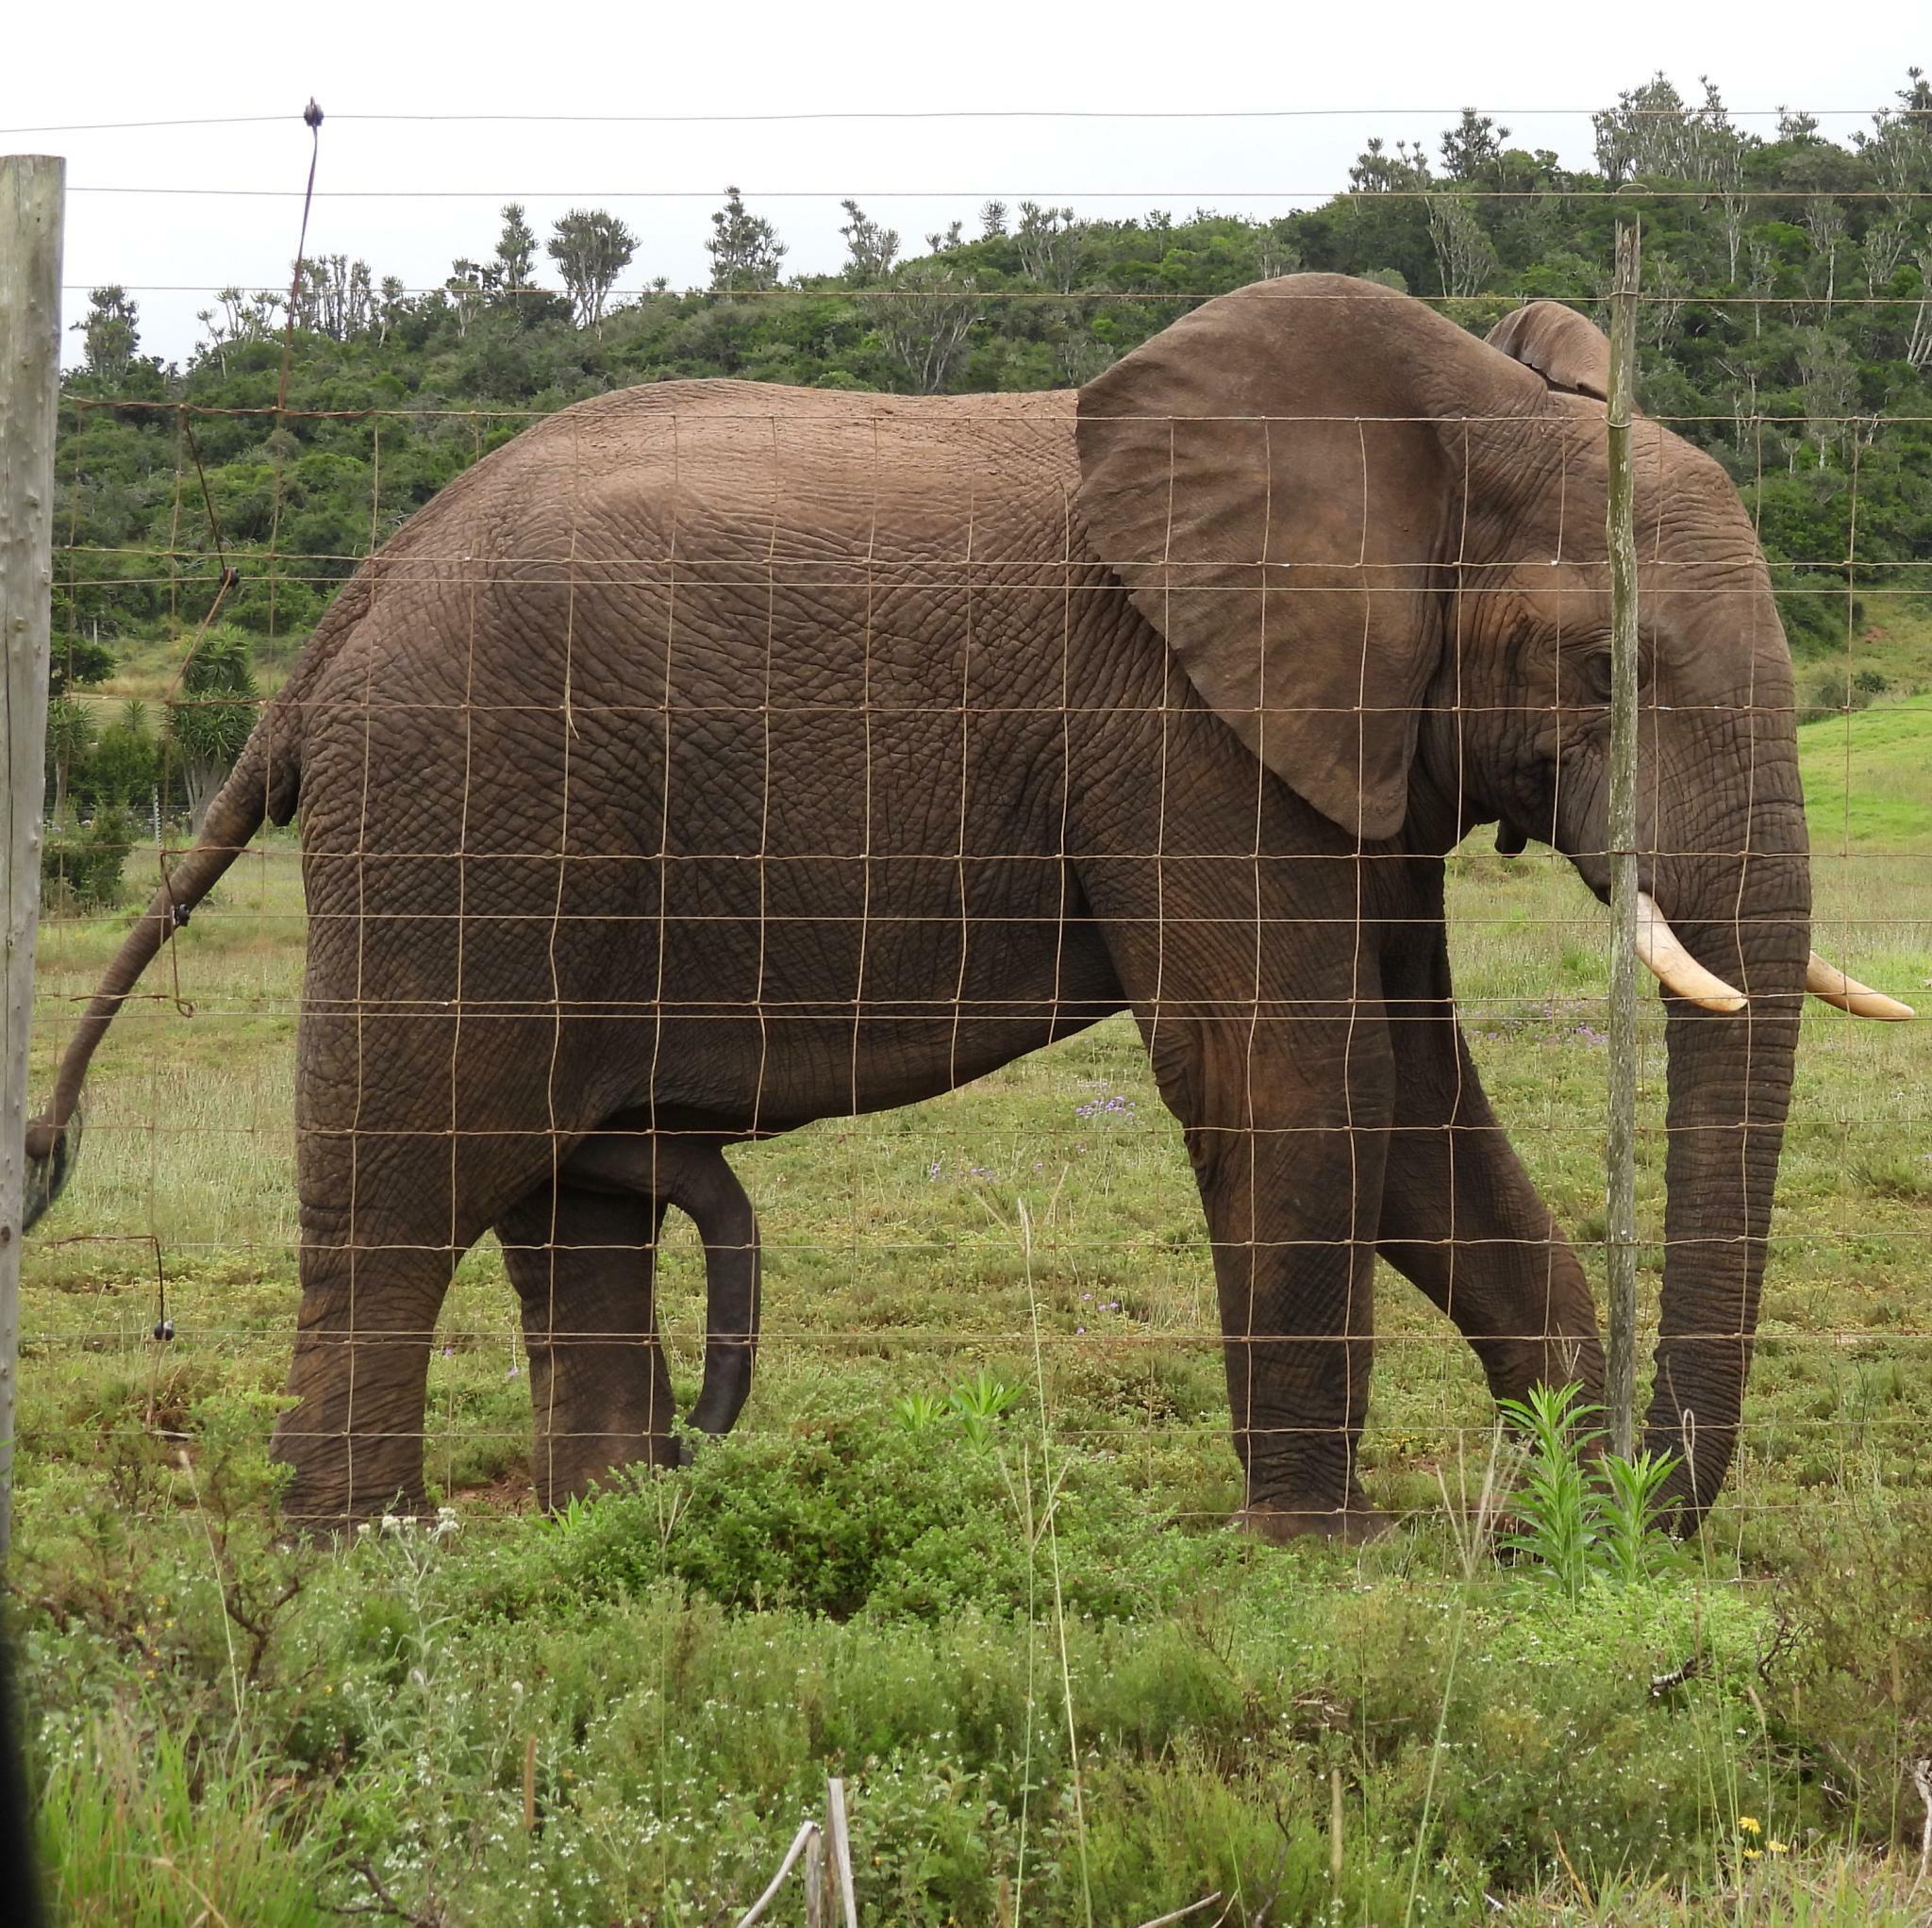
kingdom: Animalia
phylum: Chordata
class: Mammalia
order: Proboscidea
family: Elephantidae
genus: Loxodonta
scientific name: Loxodonta africana
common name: African elephant
